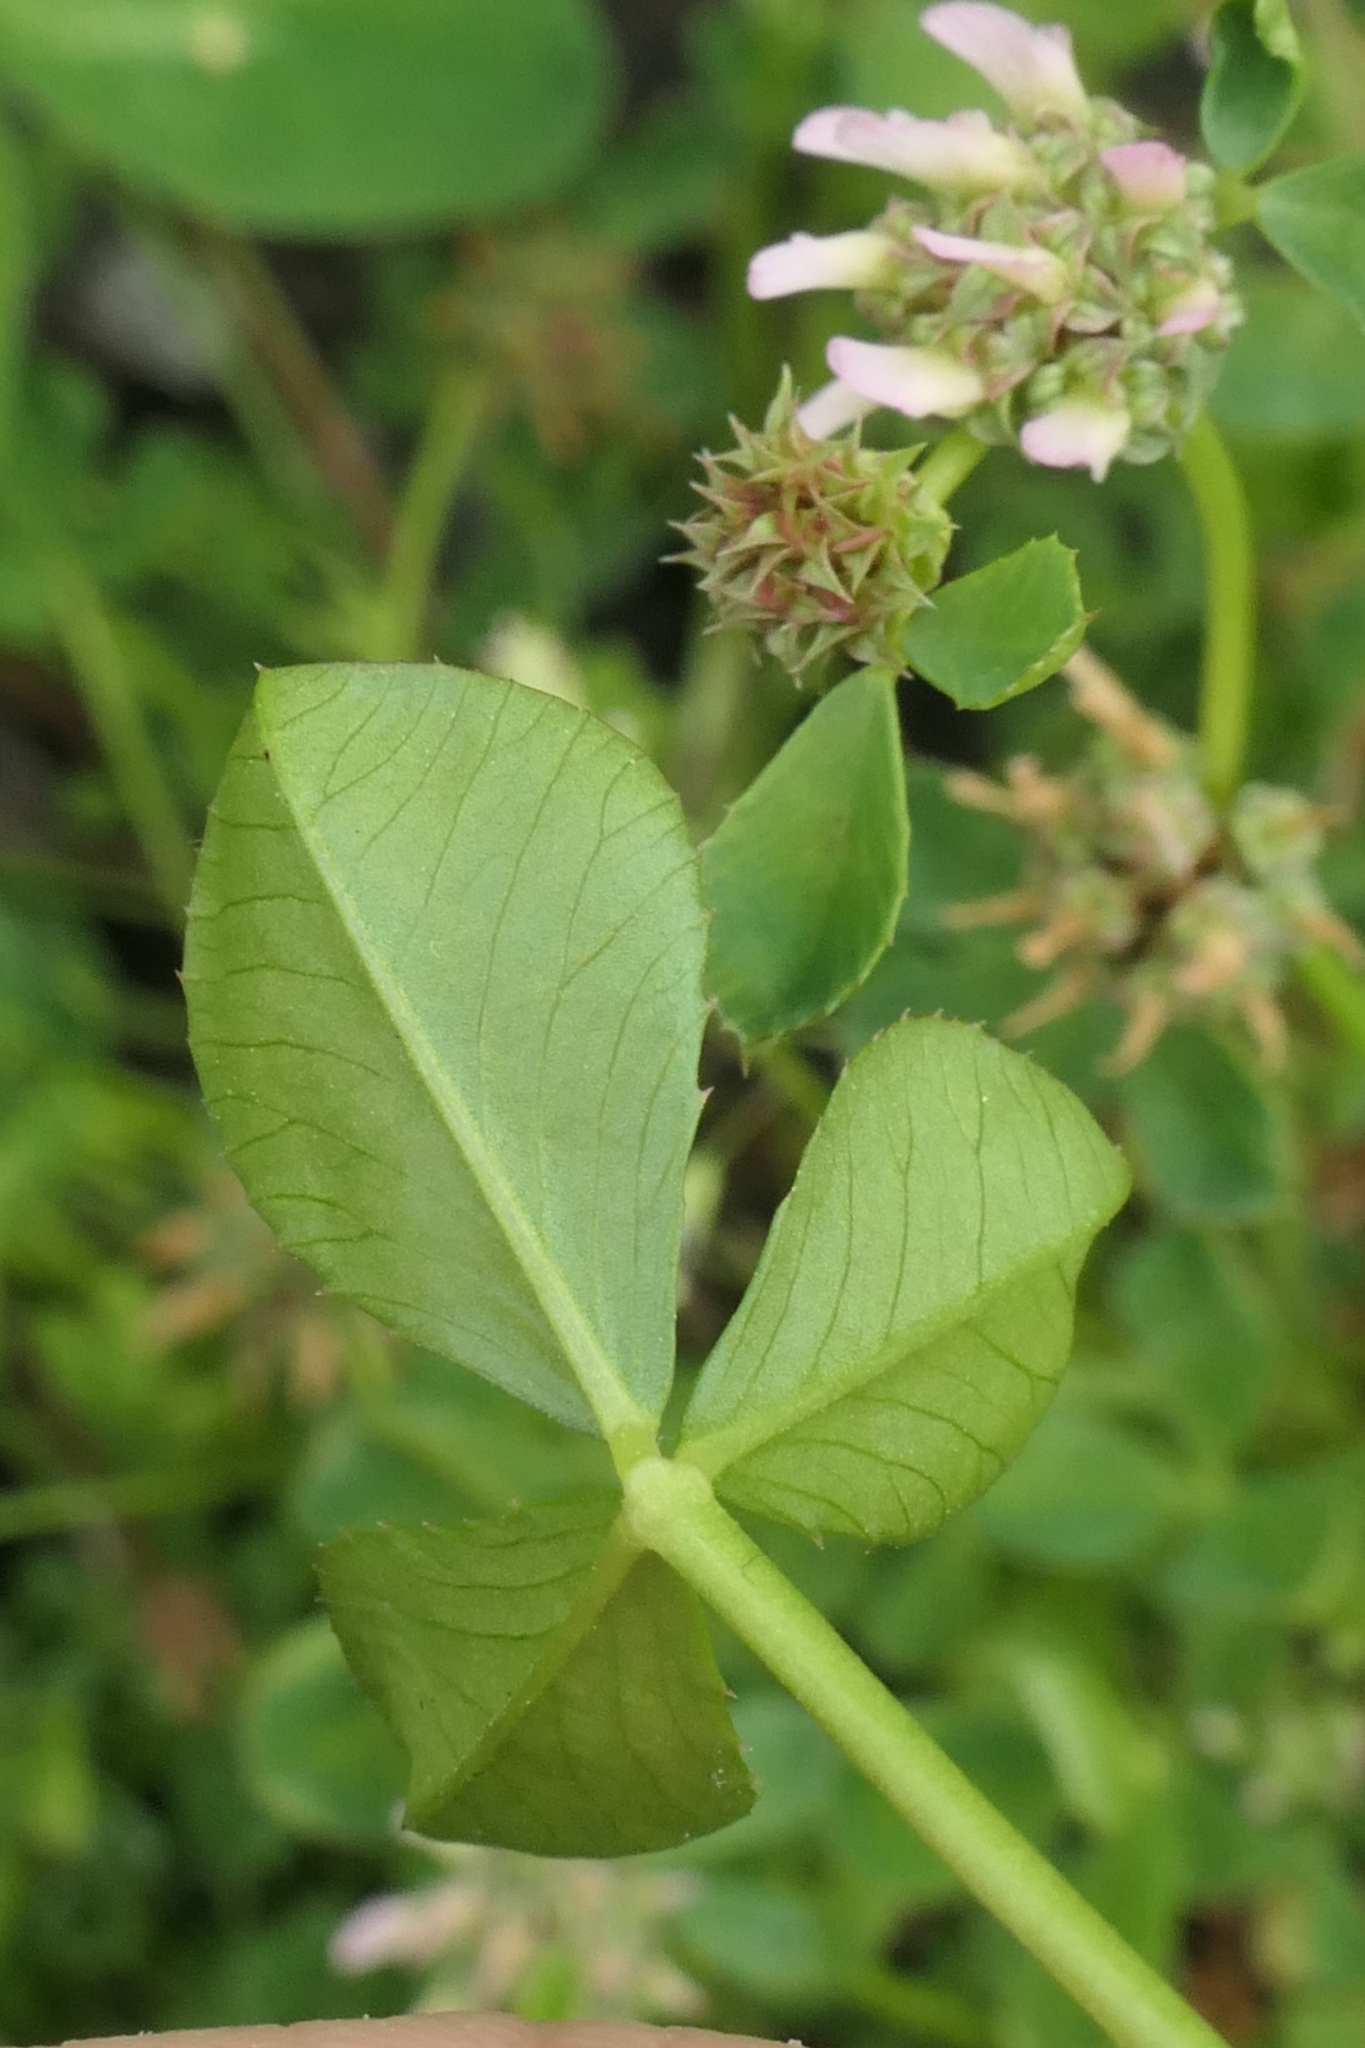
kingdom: Plantae
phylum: Tracheophyta
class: Magnoliopsida
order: Fabales
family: Fabaceae
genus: Trifolium
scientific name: Trifolium glomeratum
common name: Clustered clover
